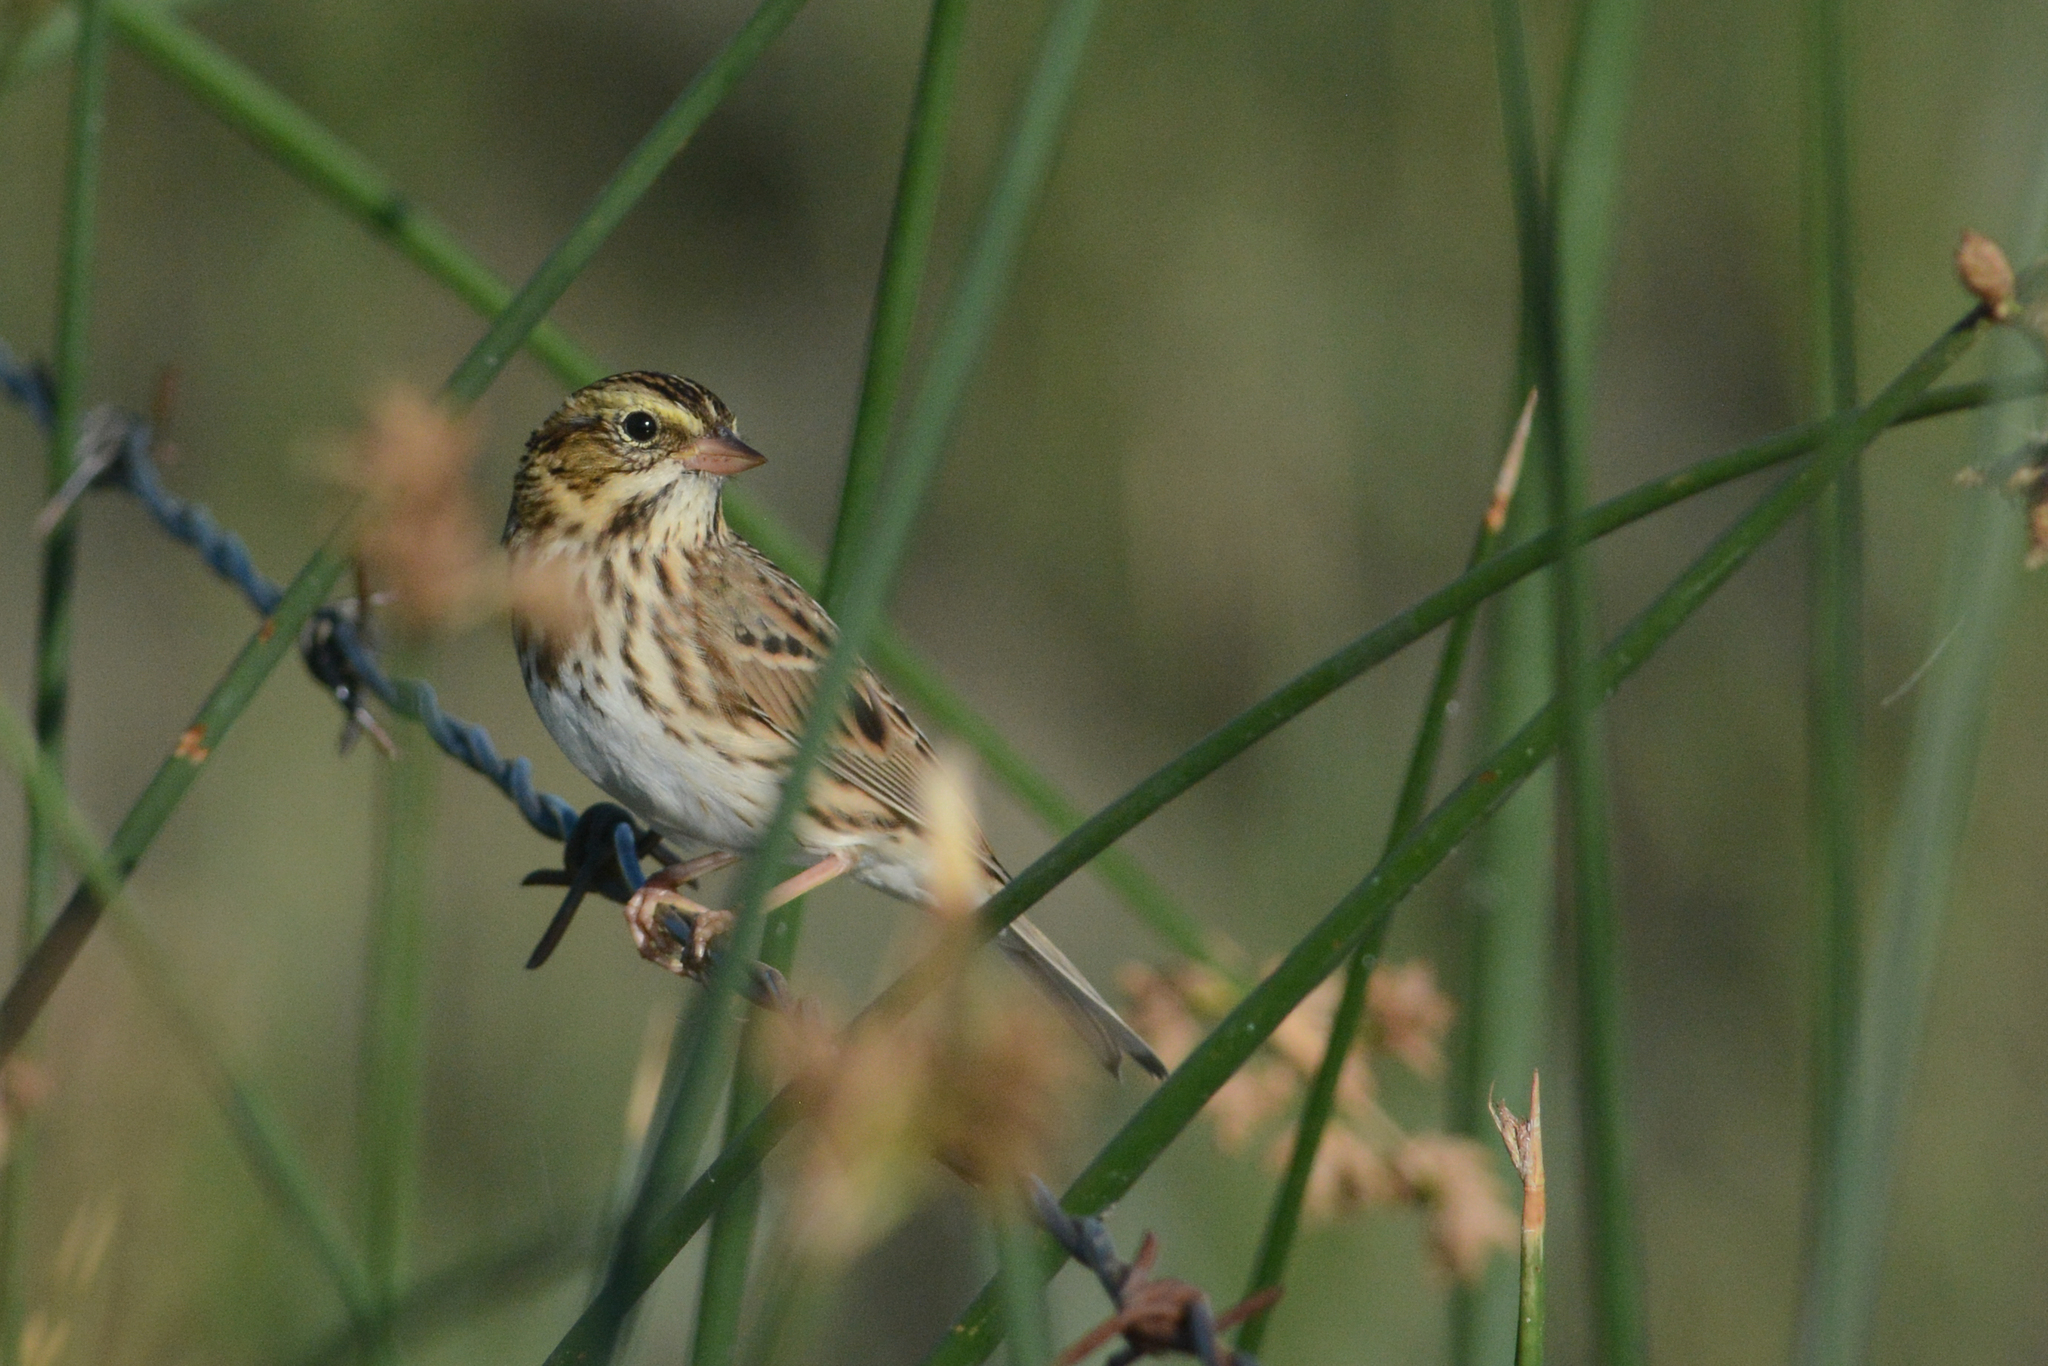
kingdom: Animalia
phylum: Chordata
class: Aves
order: Passeriformes
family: Passerellidae
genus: Passerculus
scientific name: Passerculus sandwichensis
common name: Savannah sparrow
